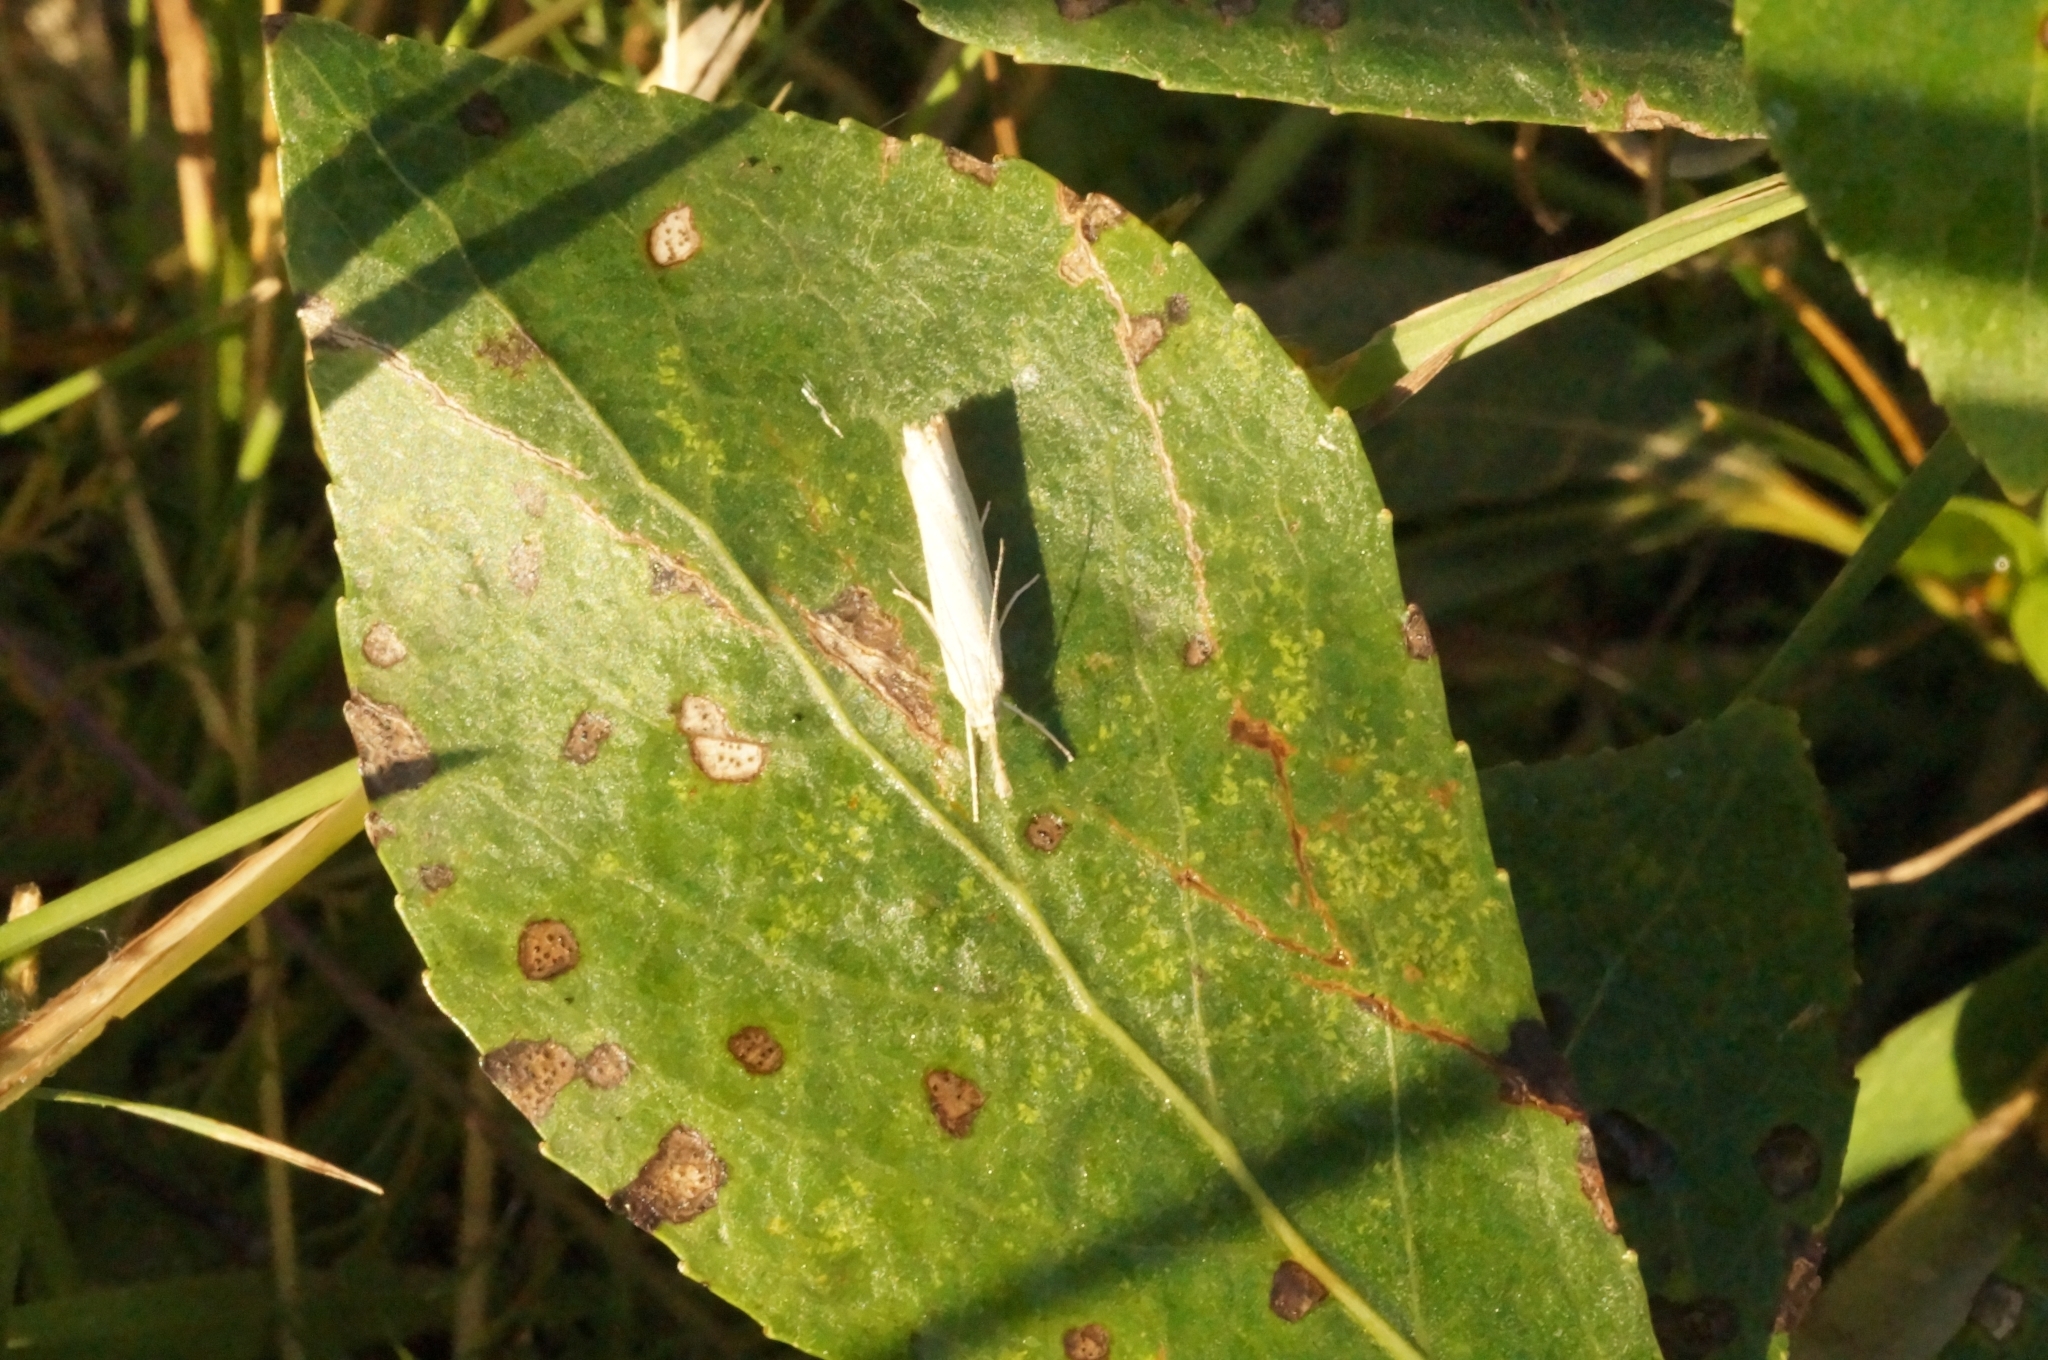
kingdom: Animalia
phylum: Arthropoda
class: Insecta
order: Lepidoptera
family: Crambidae
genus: Agriphila
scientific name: Agriphila straminella
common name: Straw grass-veneer
